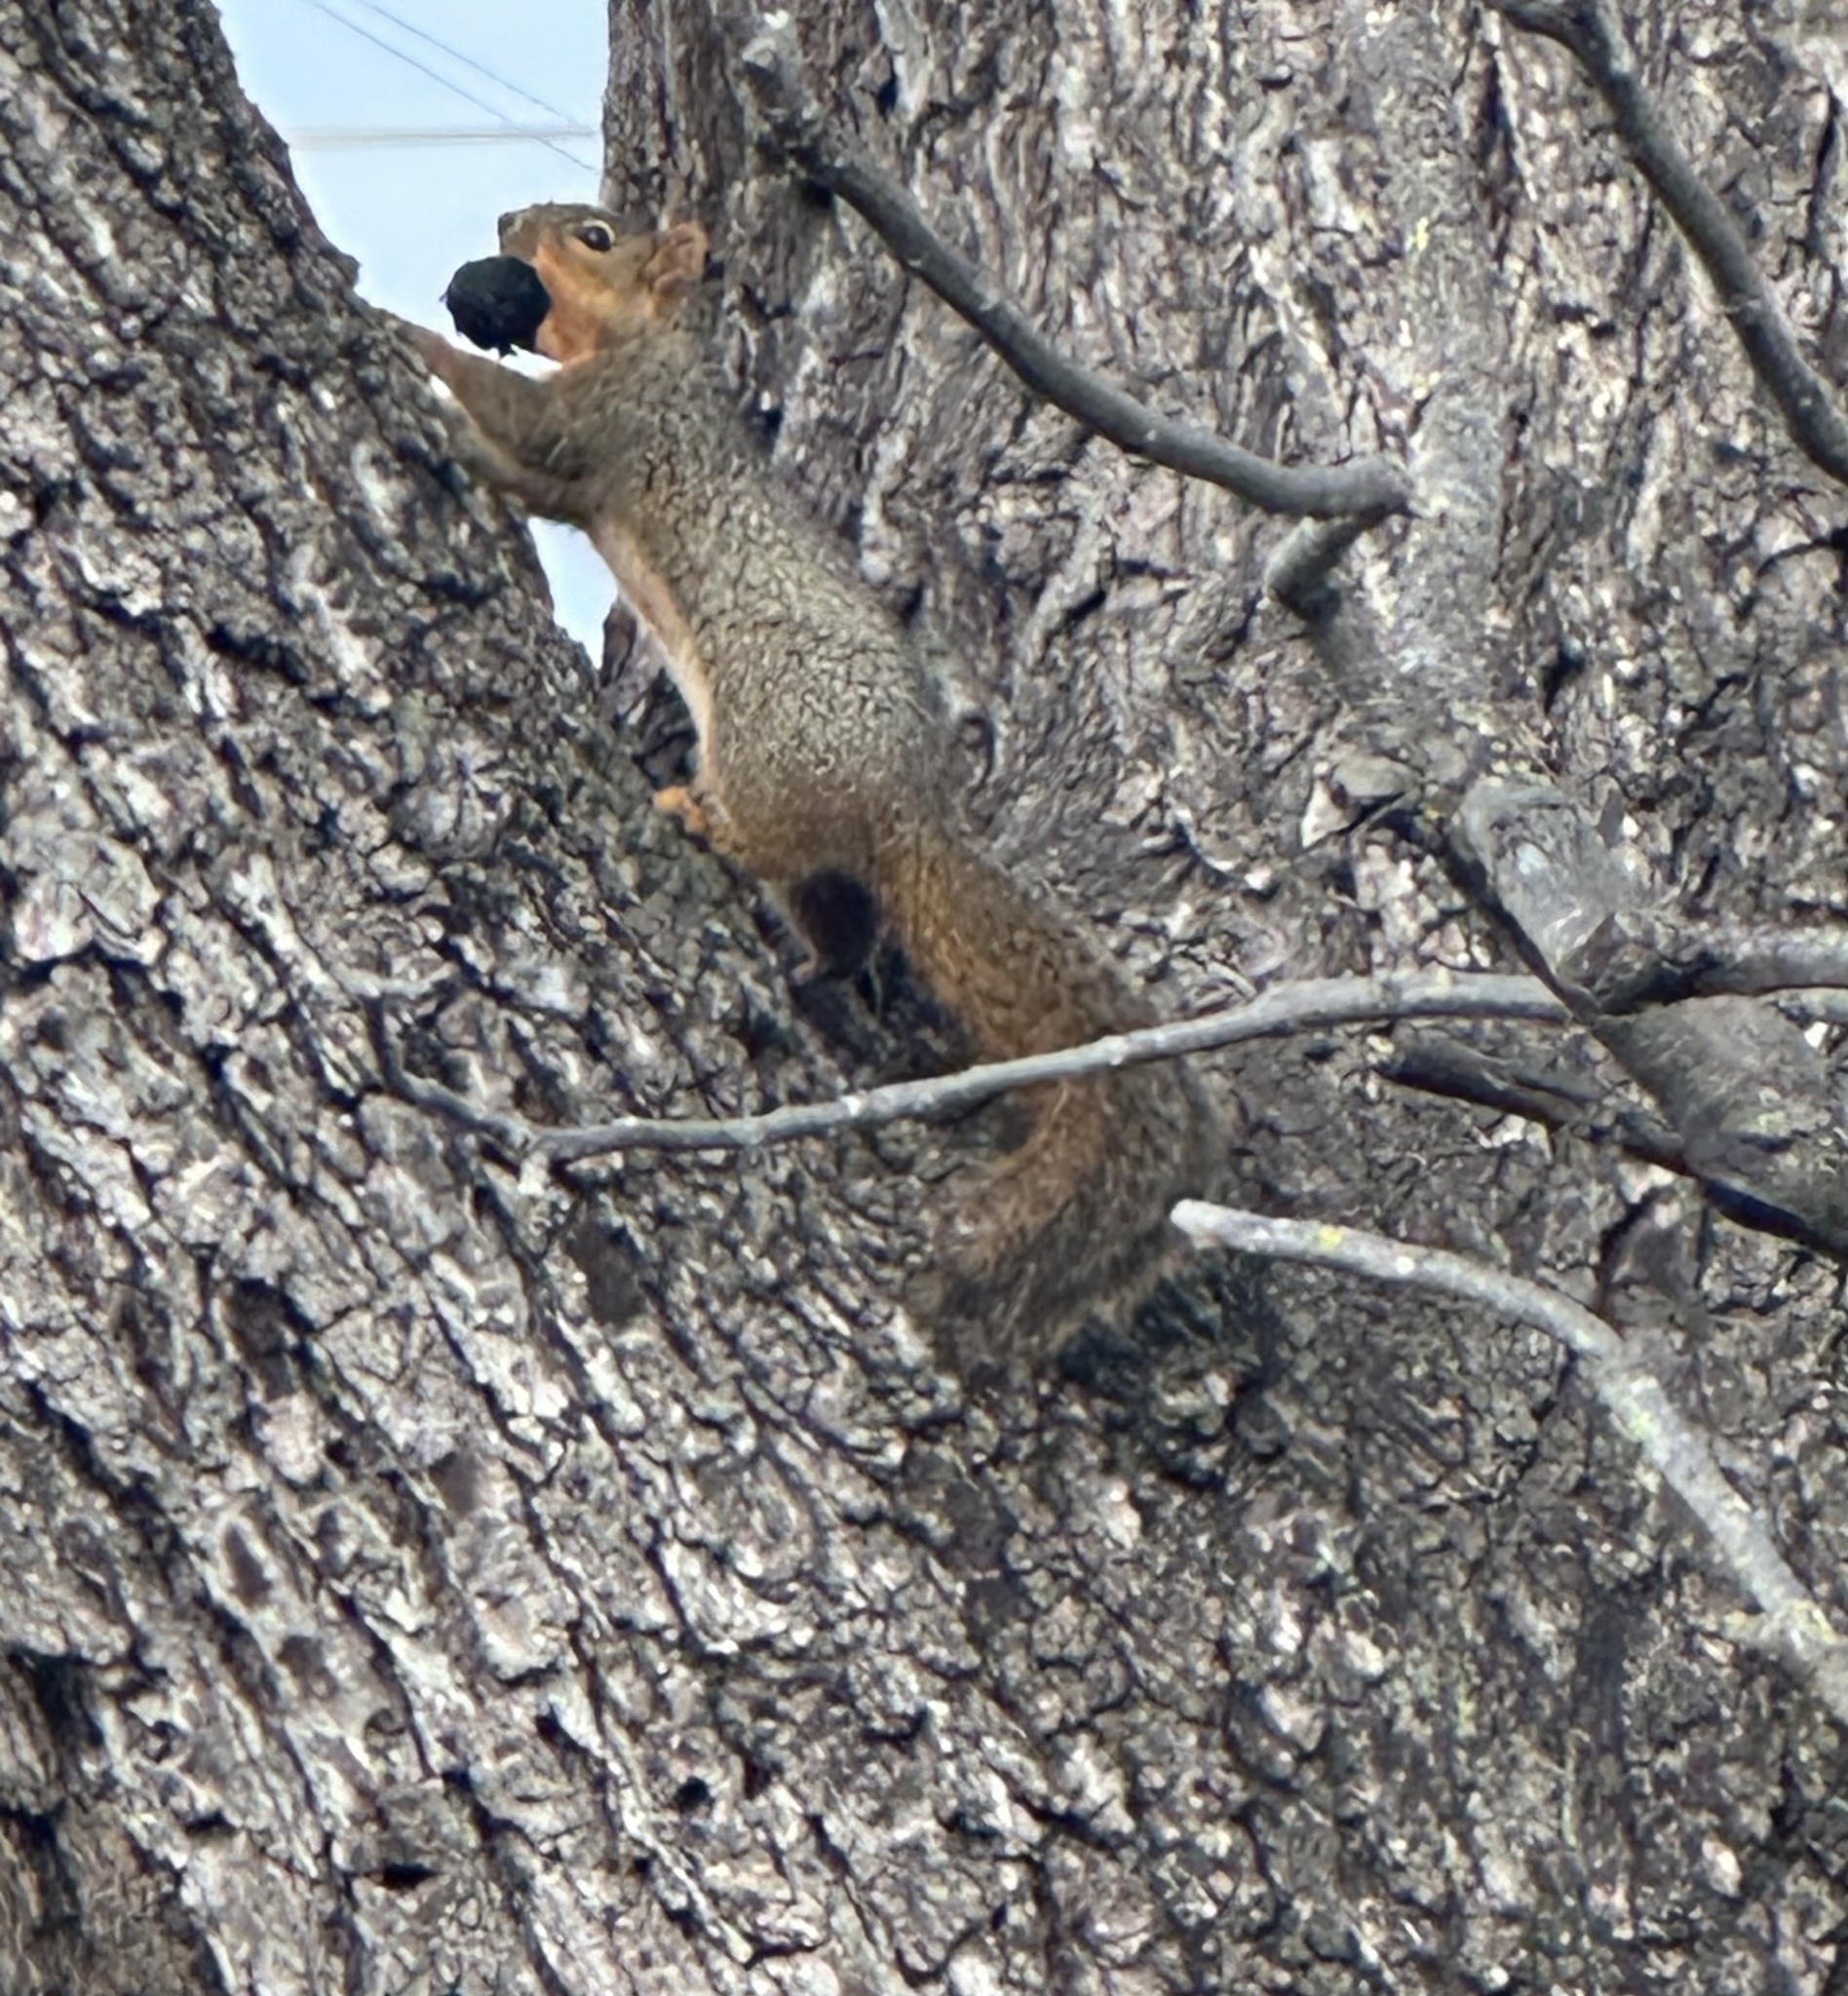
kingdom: Animalia
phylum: Chordata
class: Mammalia
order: Rodentia
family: Sciuridae
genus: Sciurus
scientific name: Sciurus niger
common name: Fox squirrel
